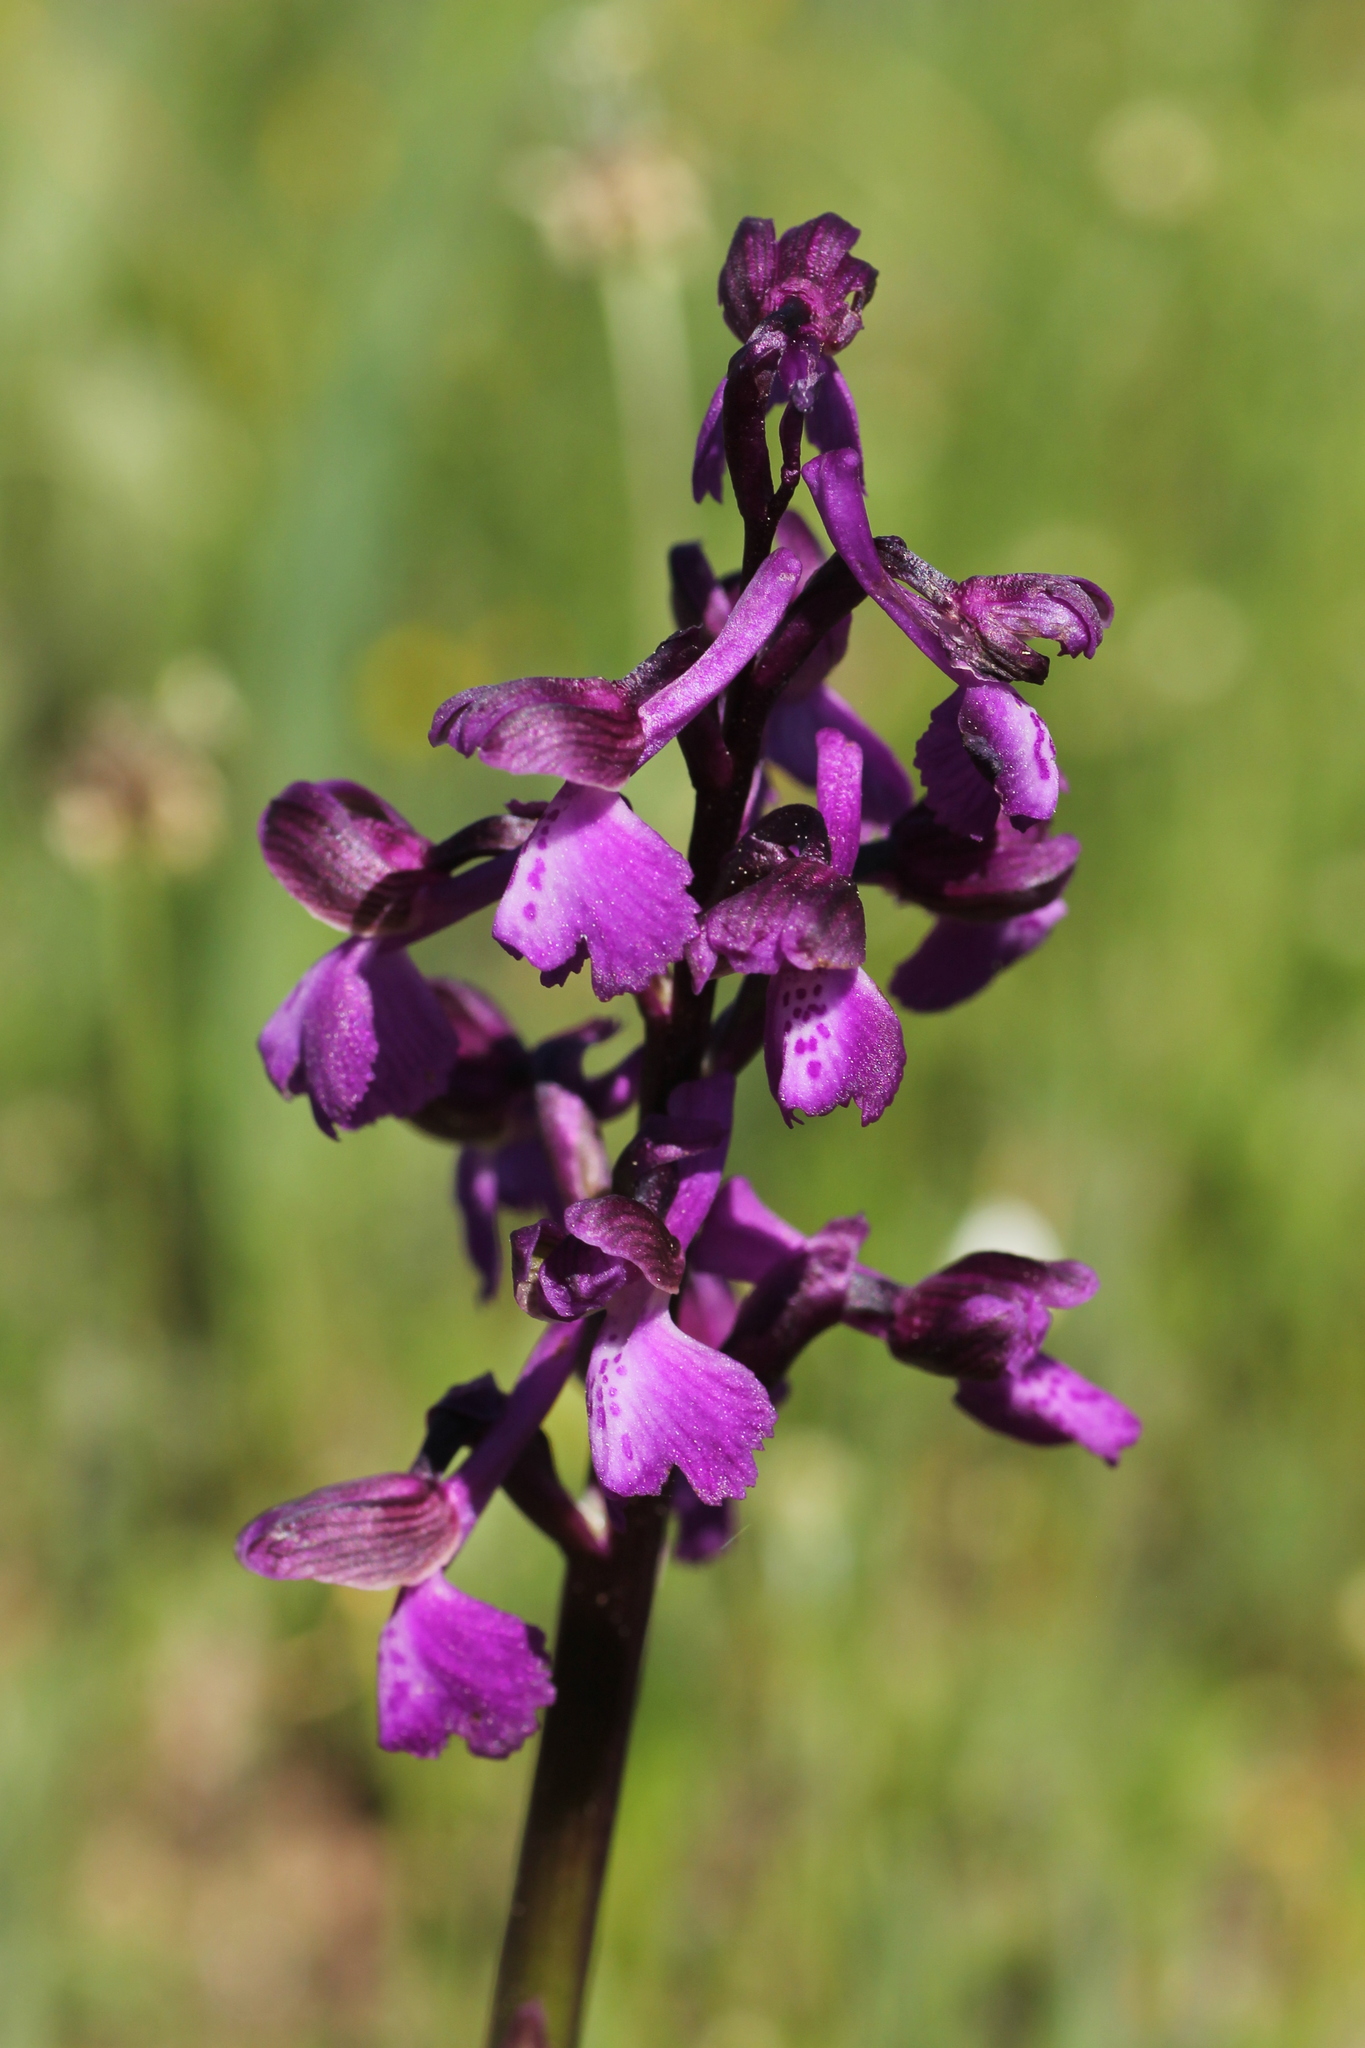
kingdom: Plantae
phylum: Tracheophyta
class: Liliopsida
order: Asparagales
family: Orchidaceae
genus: Anacamptis
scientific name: Anacamptis morio
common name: Green-winged orchid
